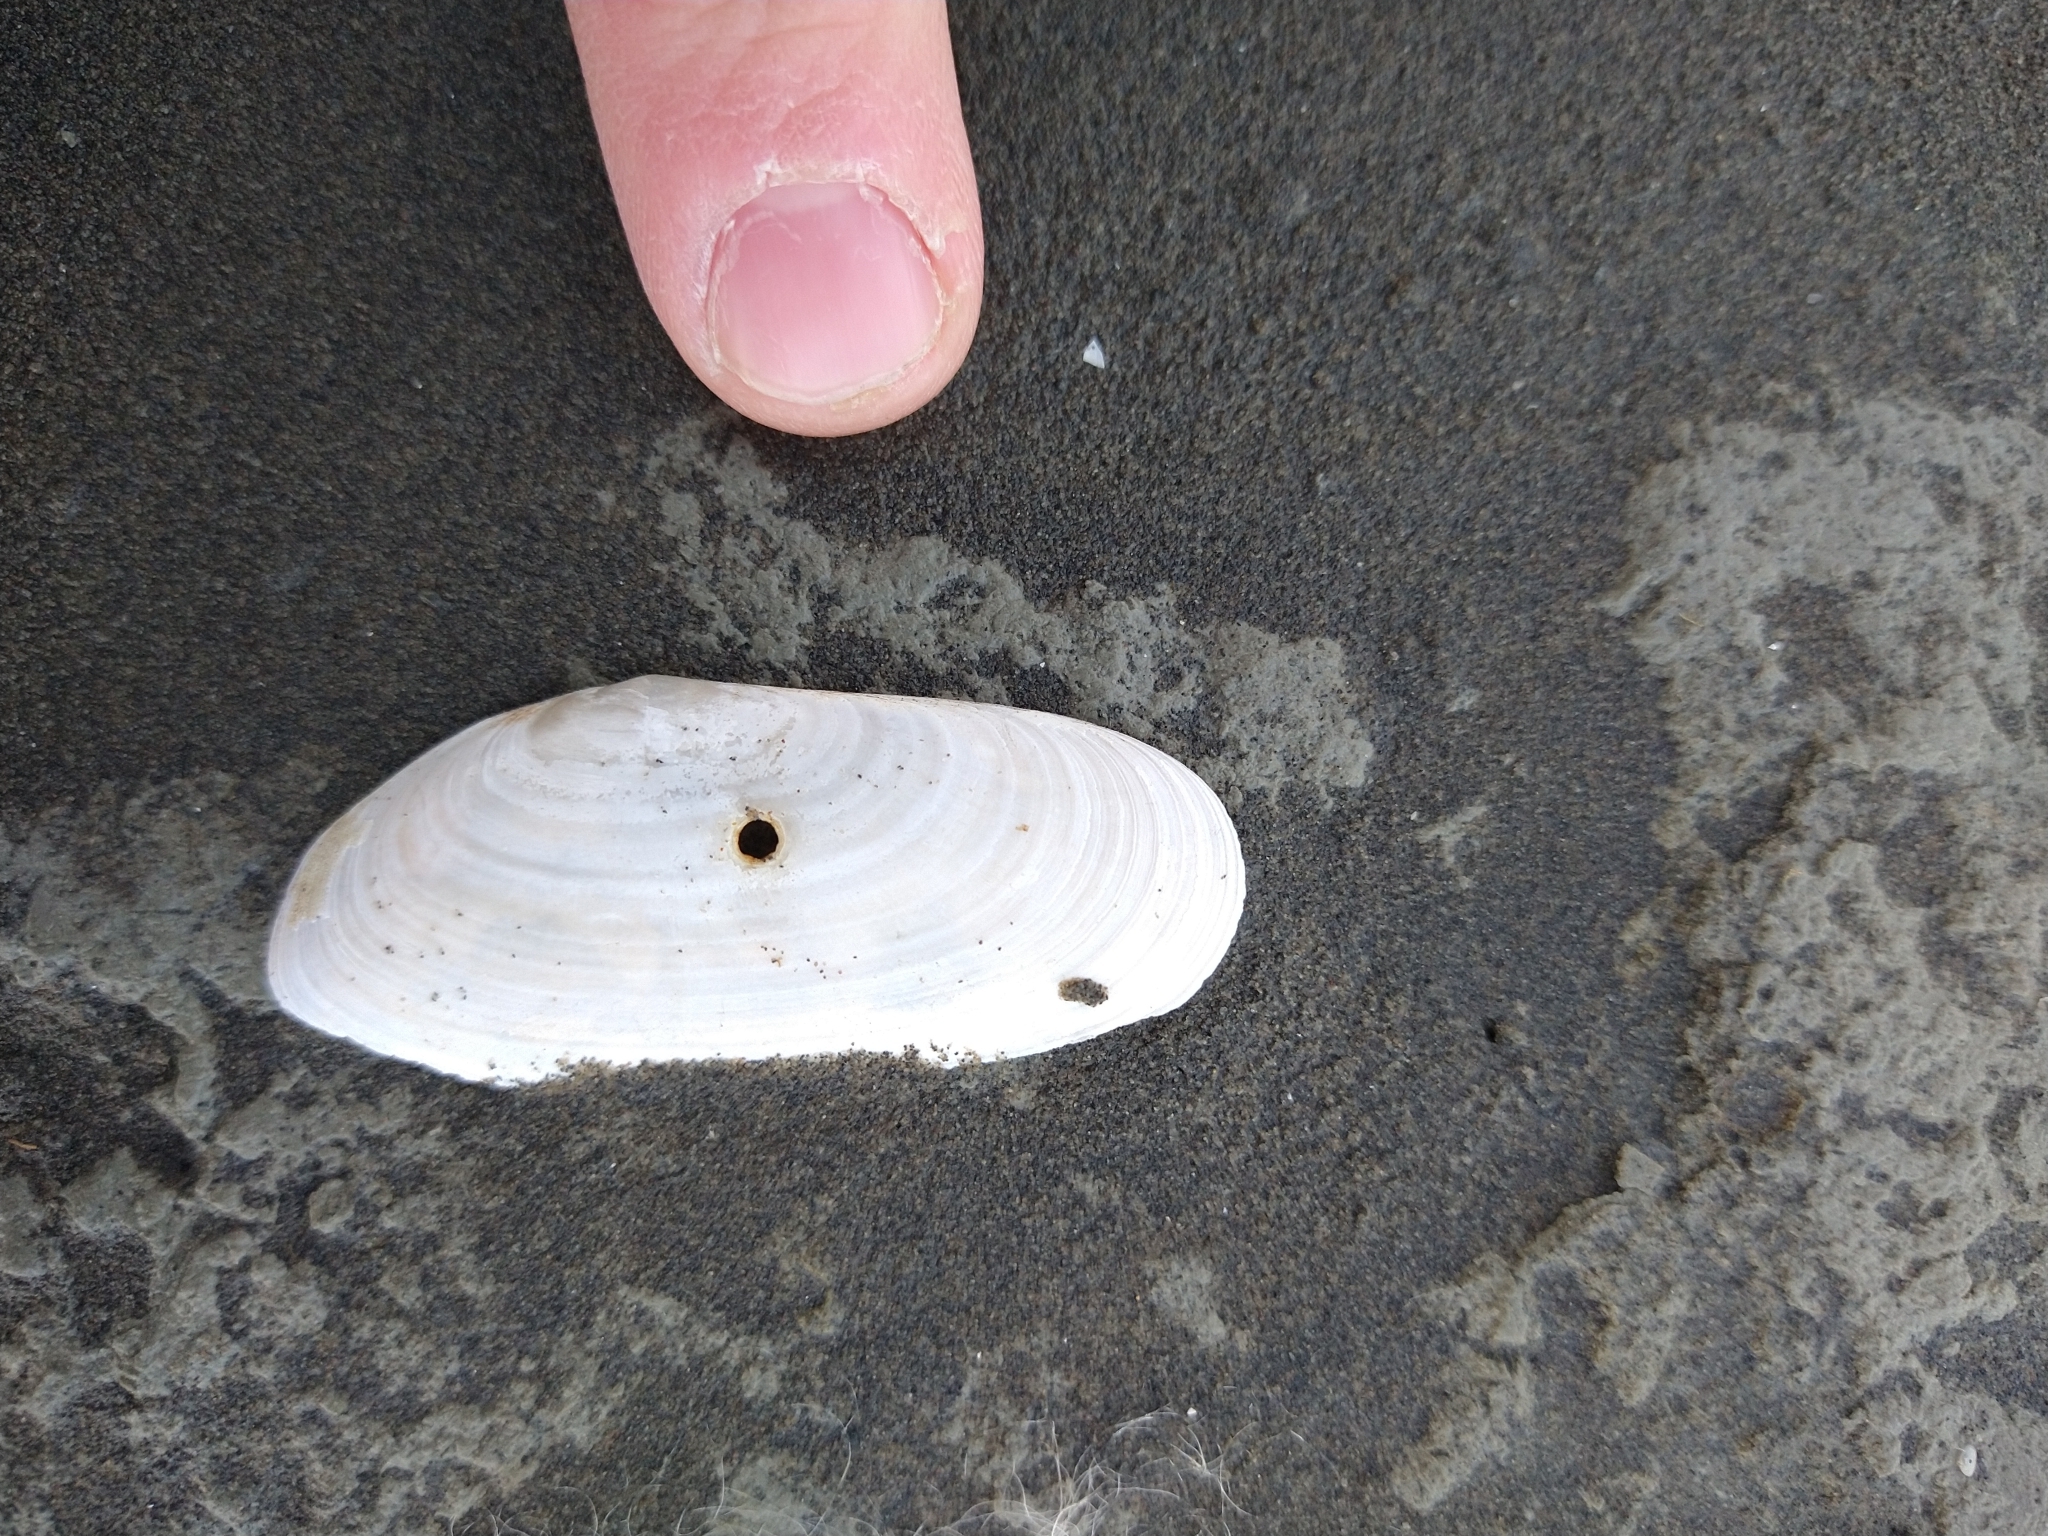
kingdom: Animalia
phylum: Mollusca
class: Bivalvia
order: Venerida
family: Mactridae
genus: Darina
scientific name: Darina solenoides
